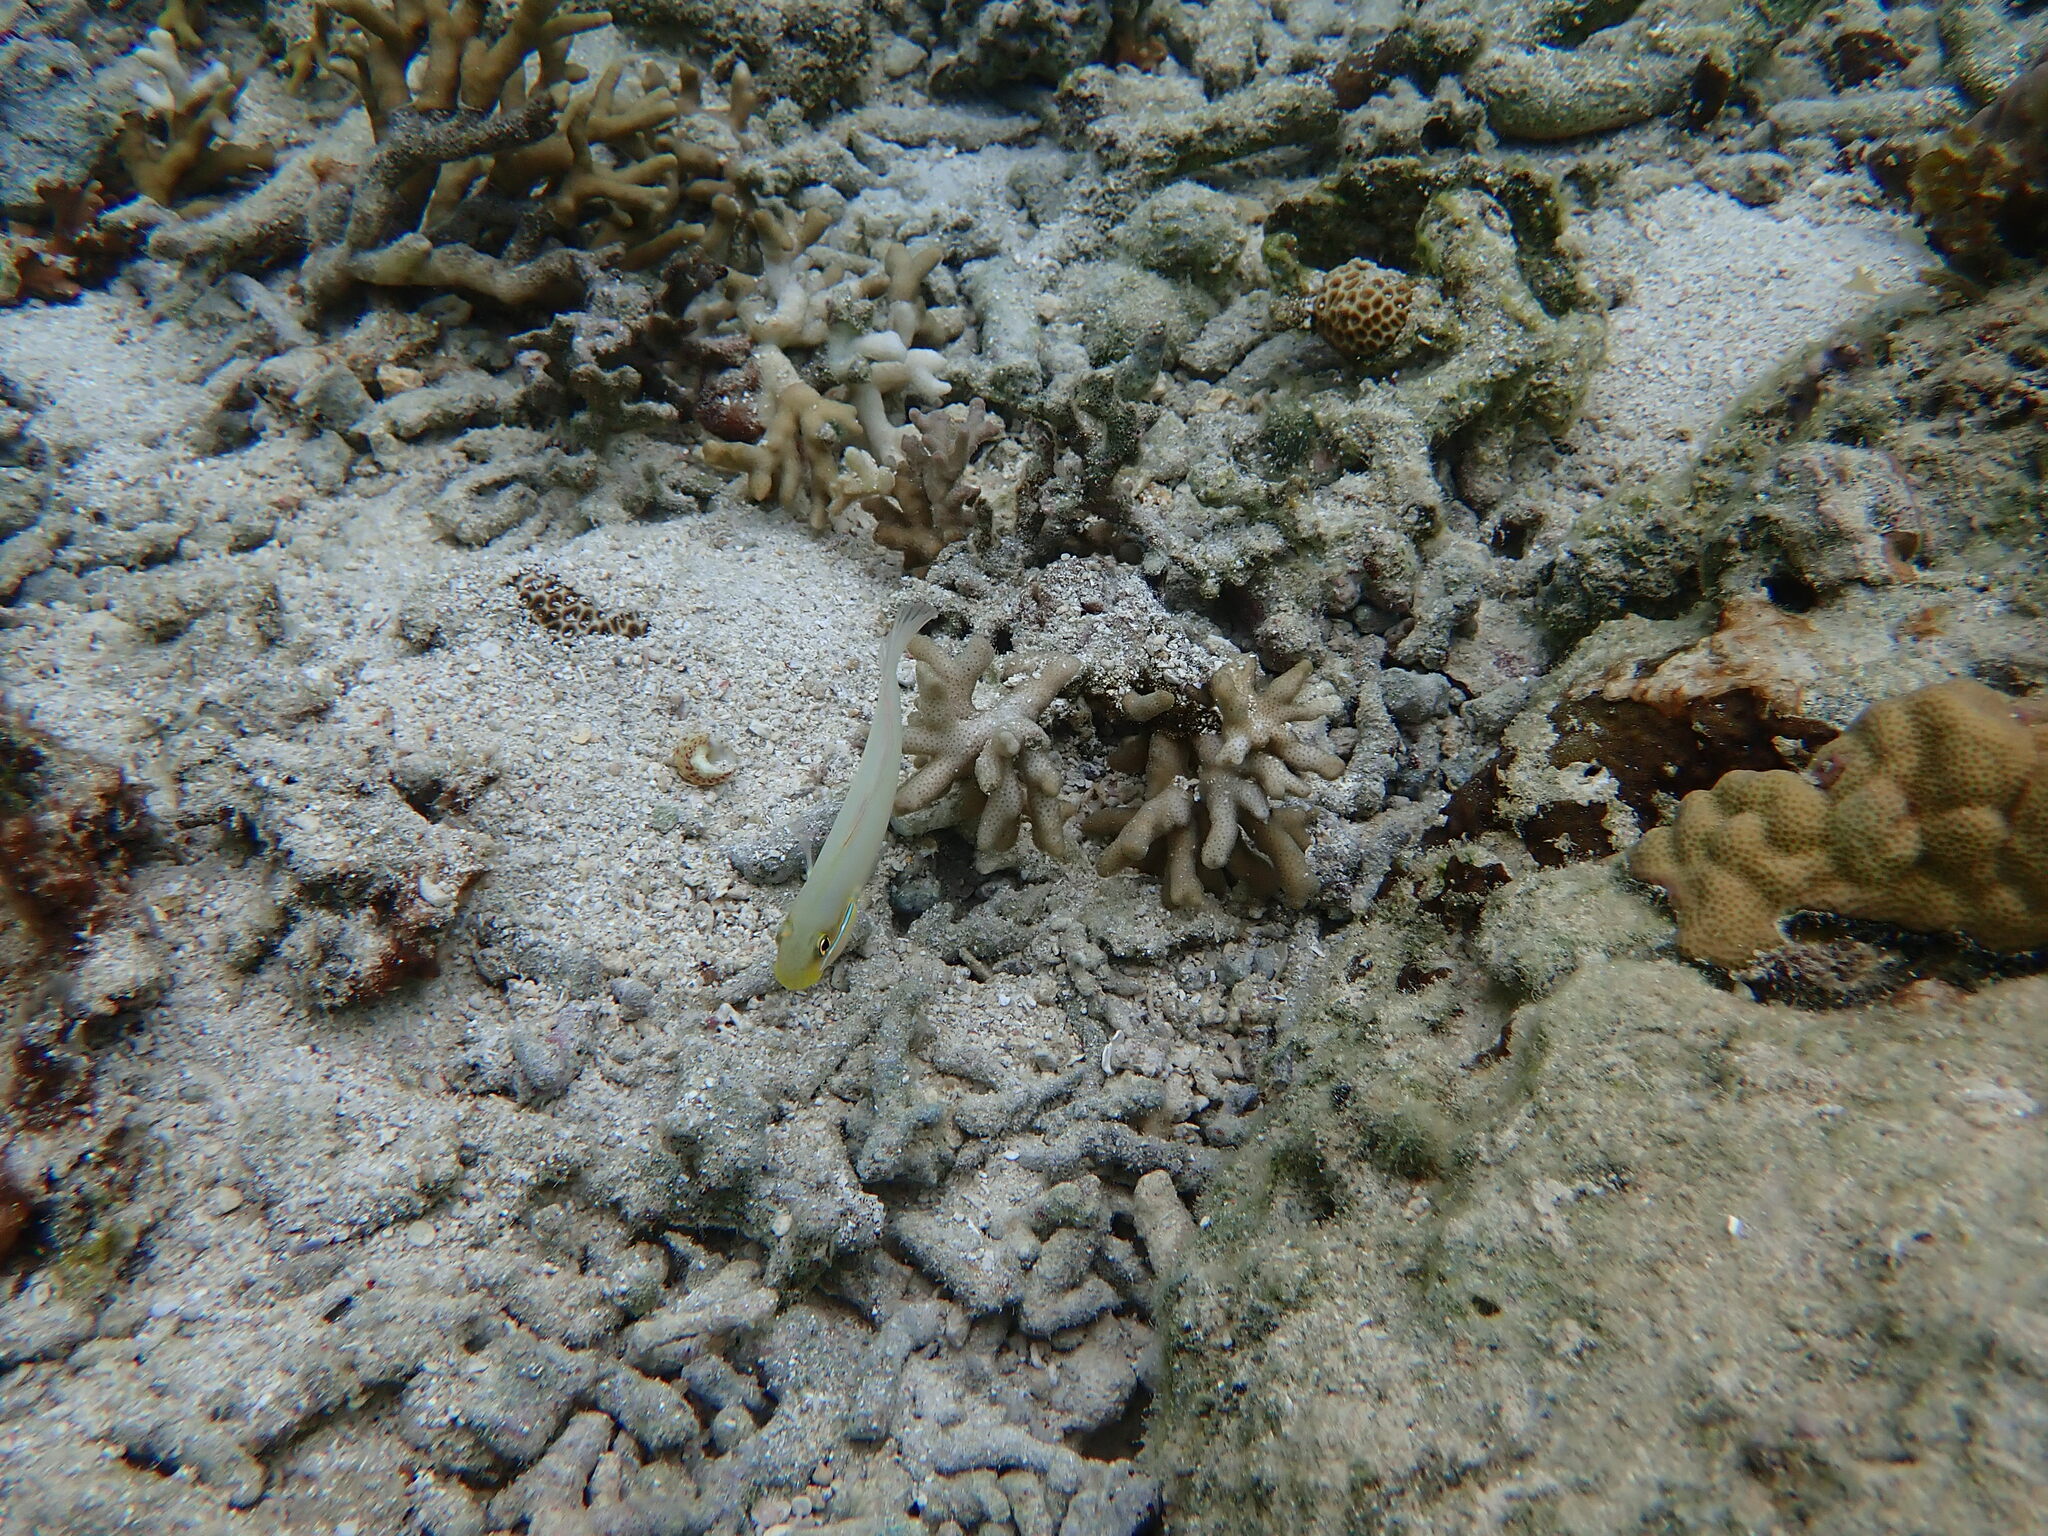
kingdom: Animalia
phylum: Chordata
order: Perciformes
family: Gobiidae
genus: Valenciennea
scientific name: Valenciennea strigata
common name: Blueband goby
